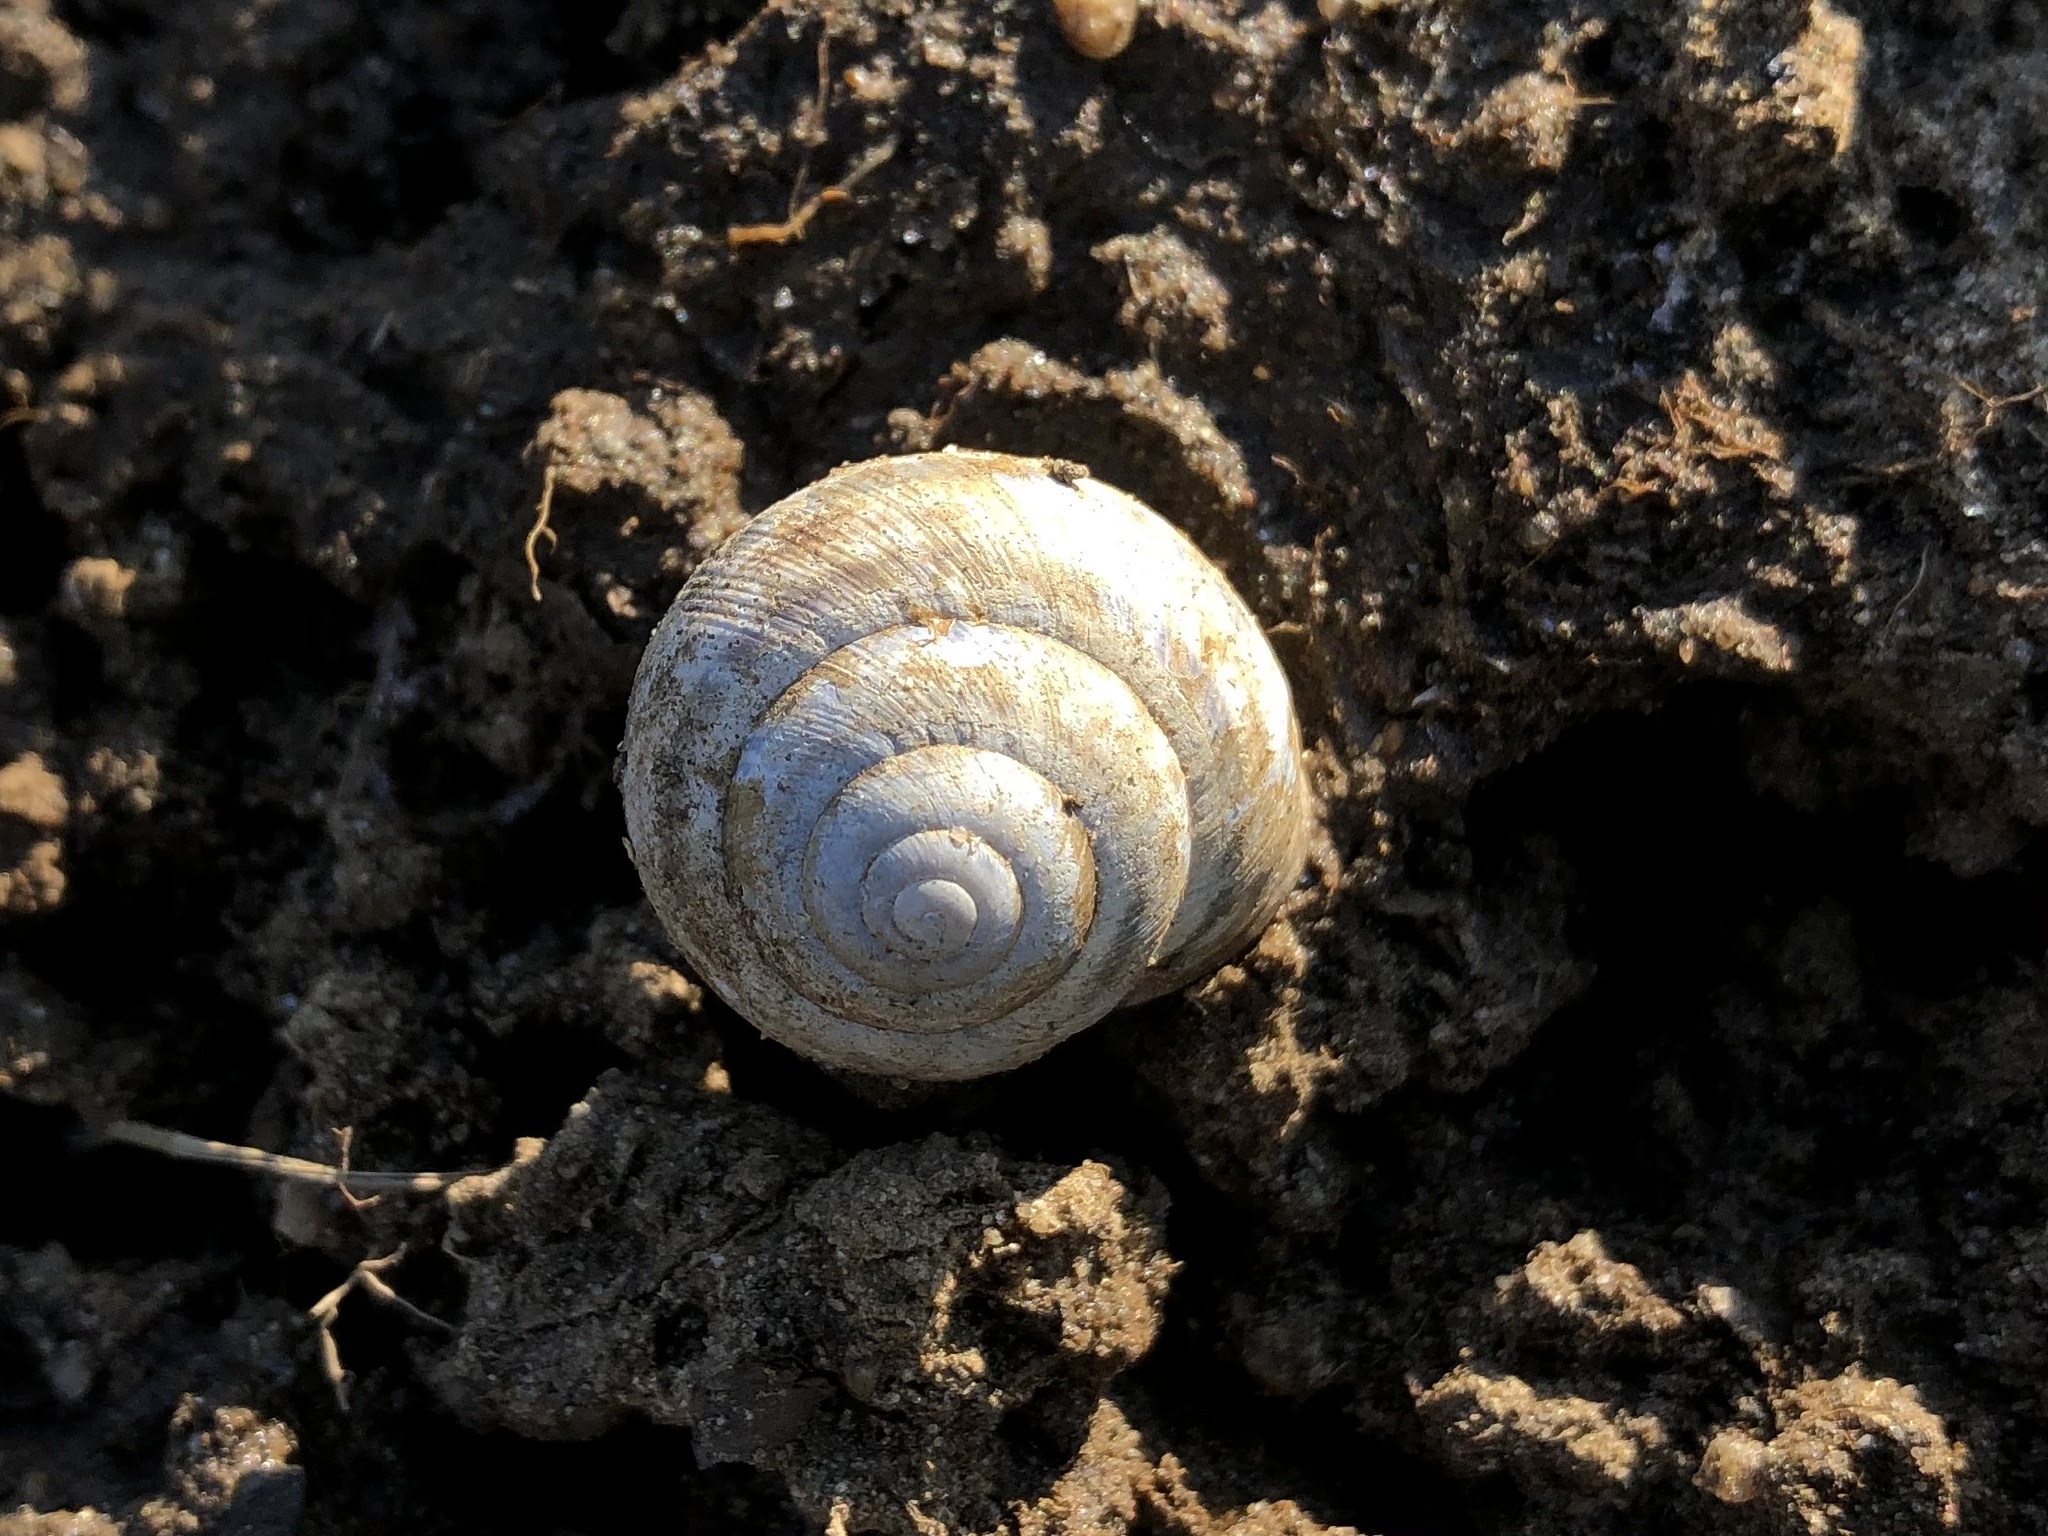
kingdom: Animalia
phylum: Mollusca
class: Gastropoda
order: Stylommatophora
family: Helicidae
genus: Caucasotachea
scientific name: Caucasotachea vindobonensis
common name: European helicid land snail
